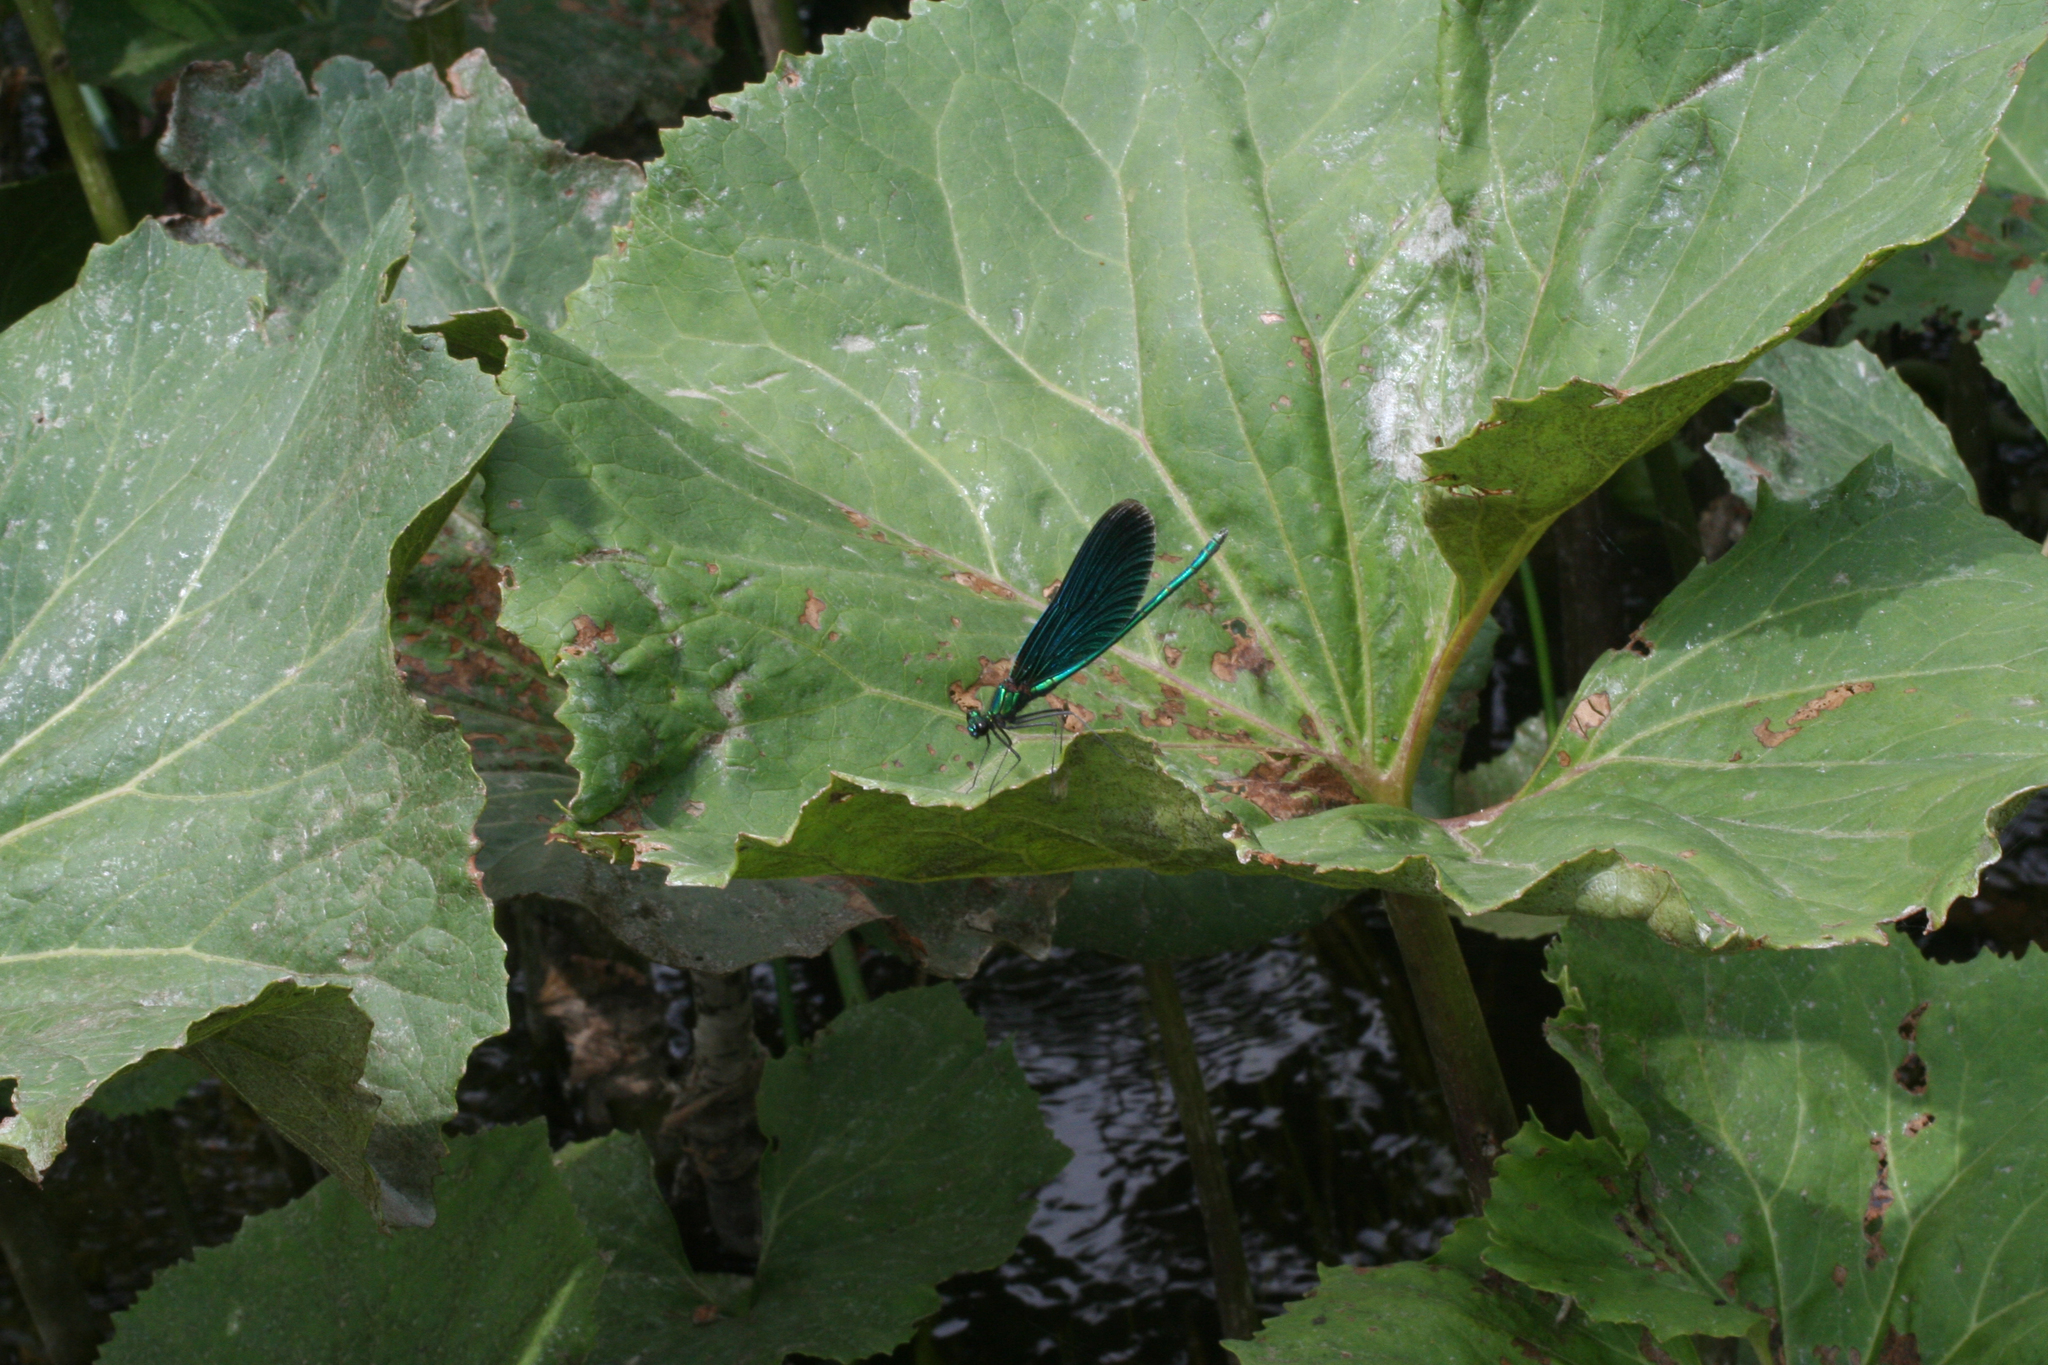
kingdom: Plantae
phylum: Tracheophyta
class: Magnoliopsida
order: Asterales
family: Asteraceae
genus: Petasites
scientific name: Petasites radiatus
